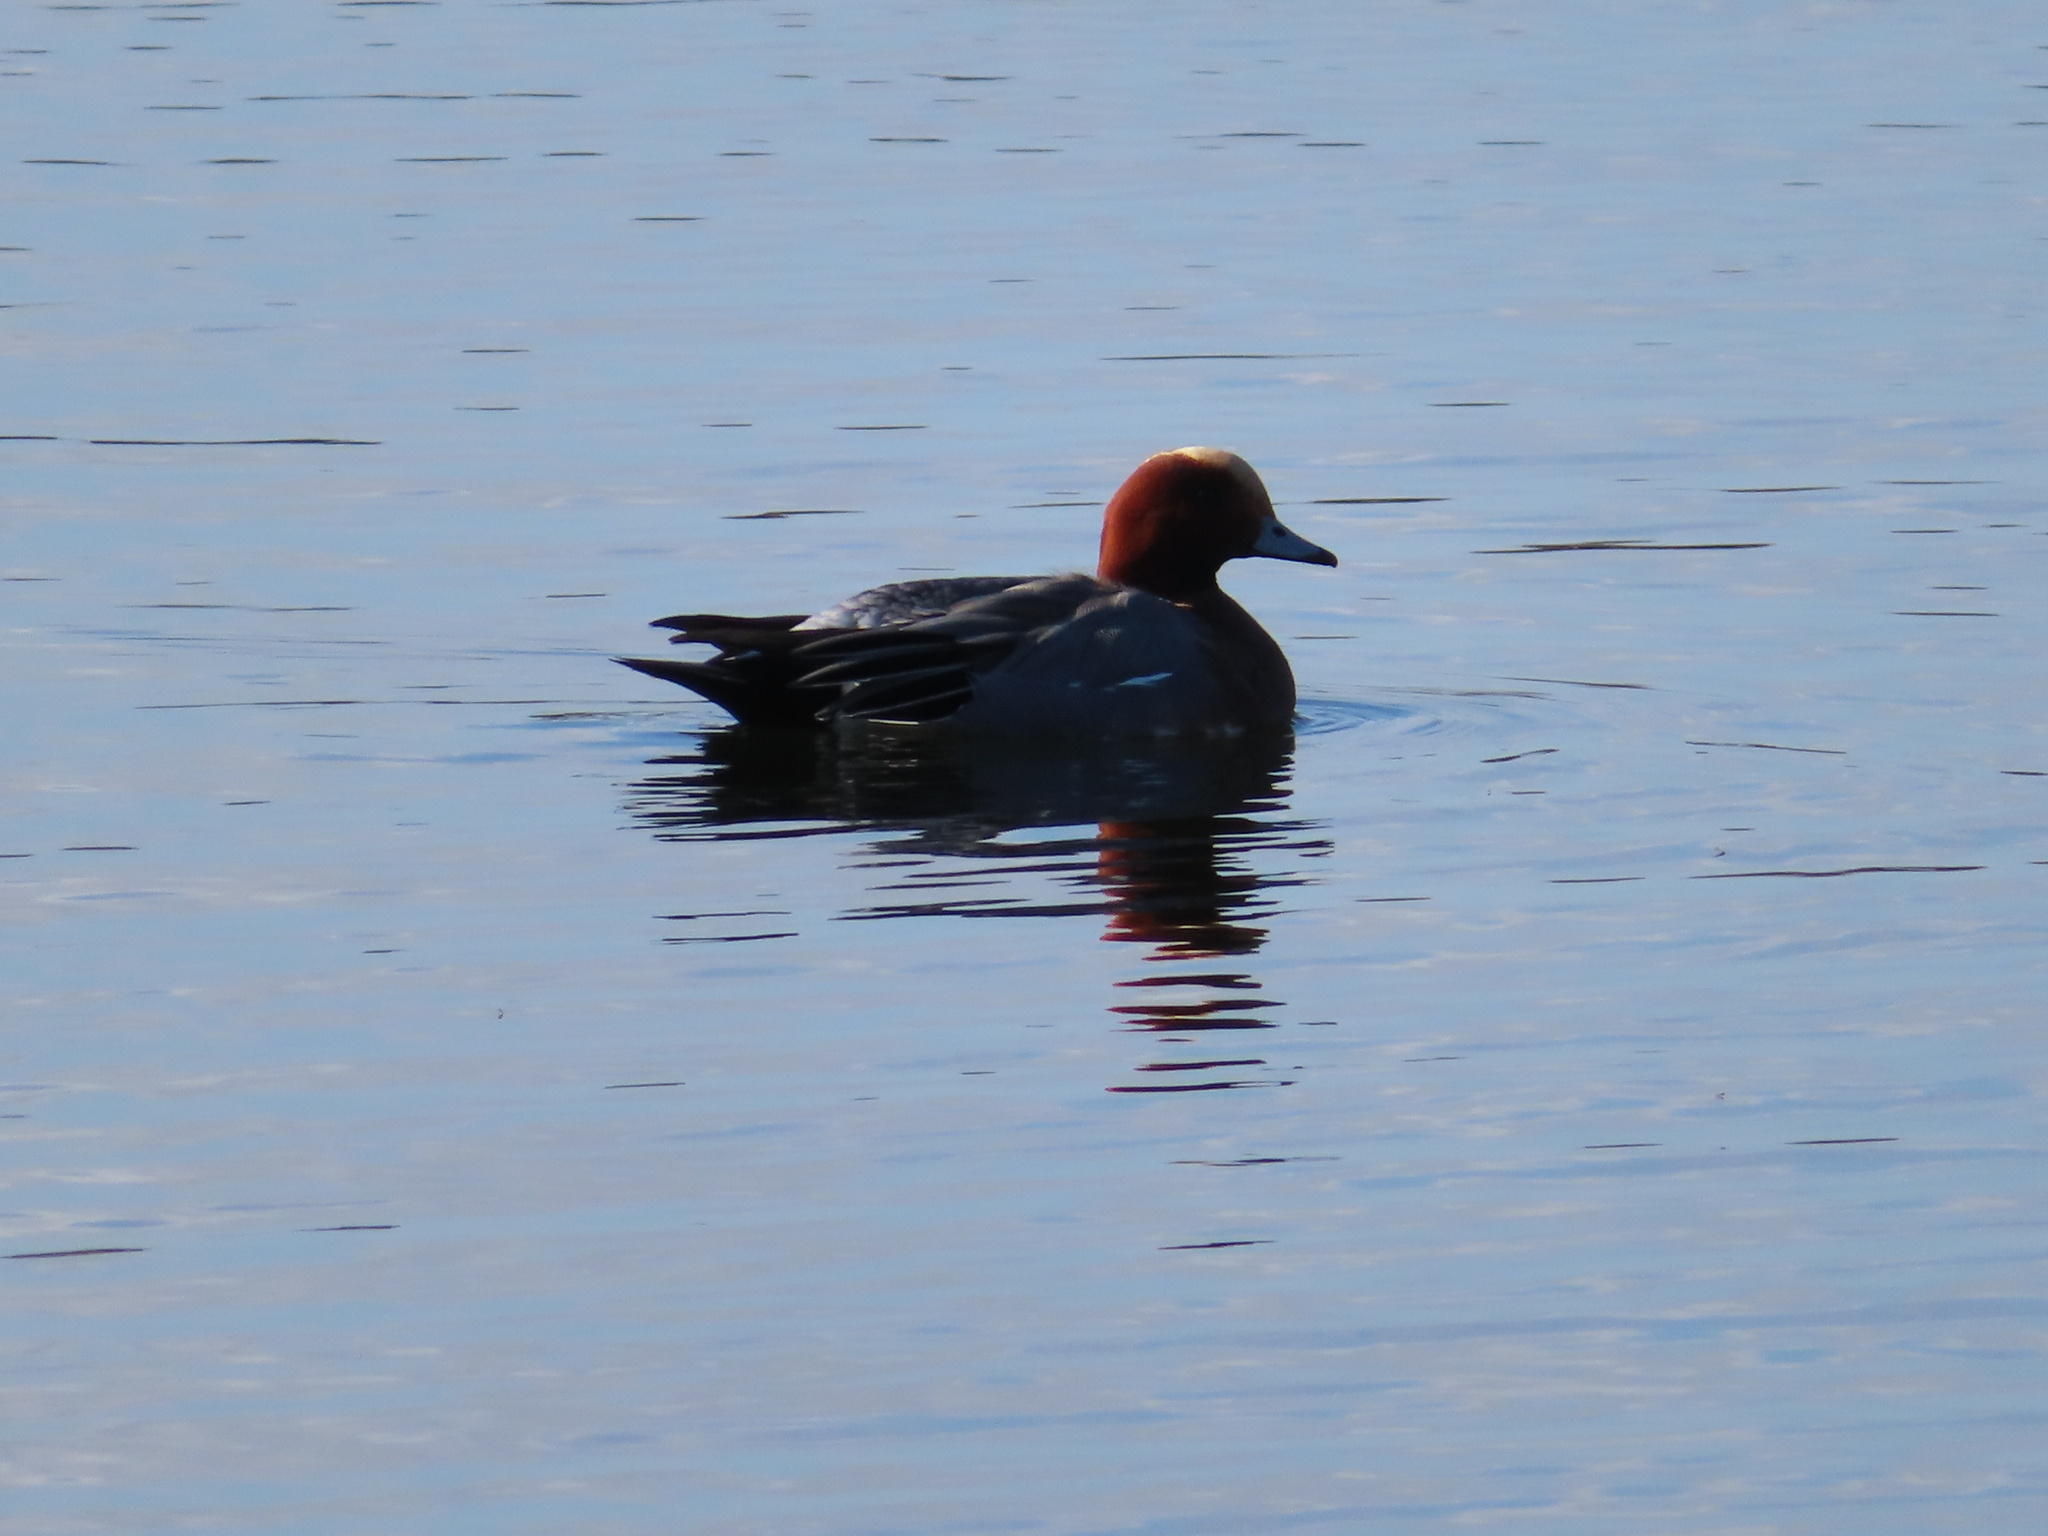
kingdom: Animalia
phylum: Chordata
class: Aves
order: Anseriformes
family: Anatidae
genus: Mareca
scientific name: Mareca penelope
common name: Eurasian wigeon
